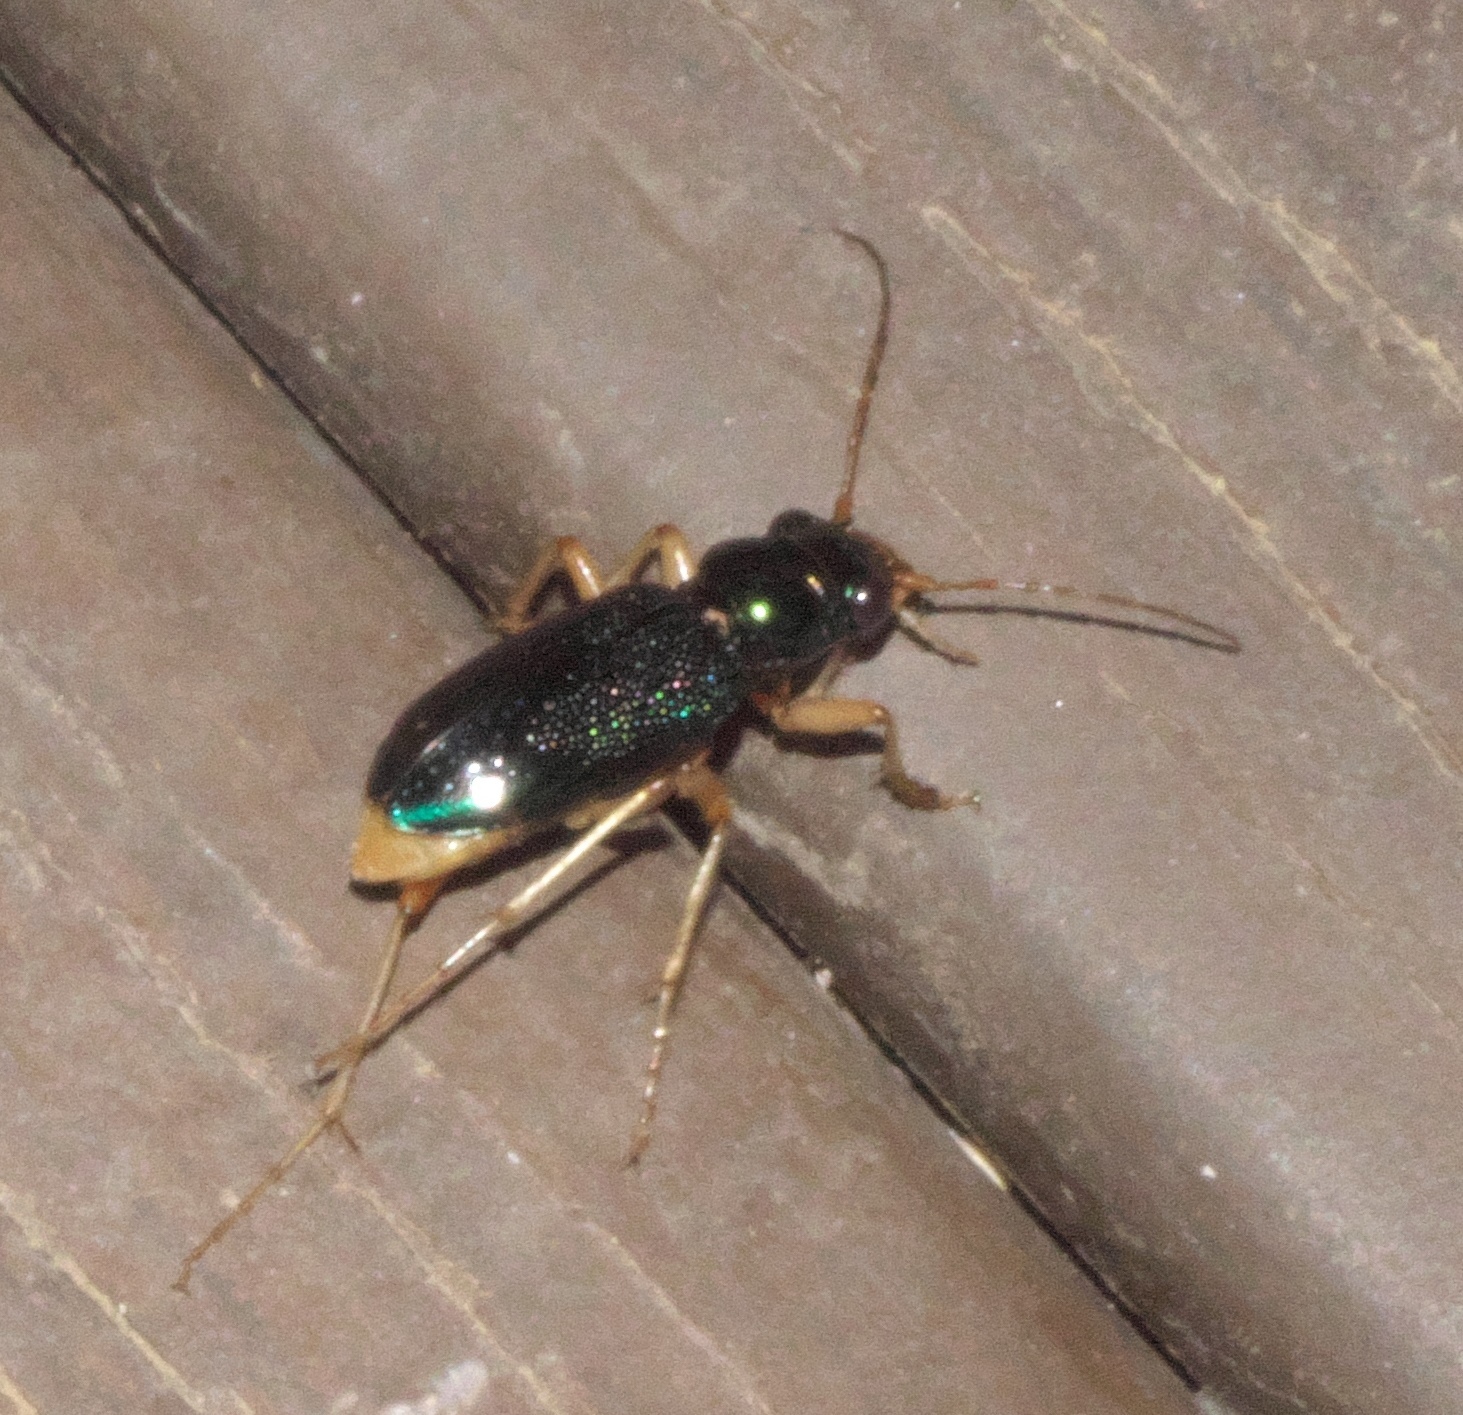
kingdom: Animalia
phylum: Arthropoda
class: Insecta
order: Coleoptera
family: Carabidae
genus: Tetracha
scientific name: Tetracha virginica
